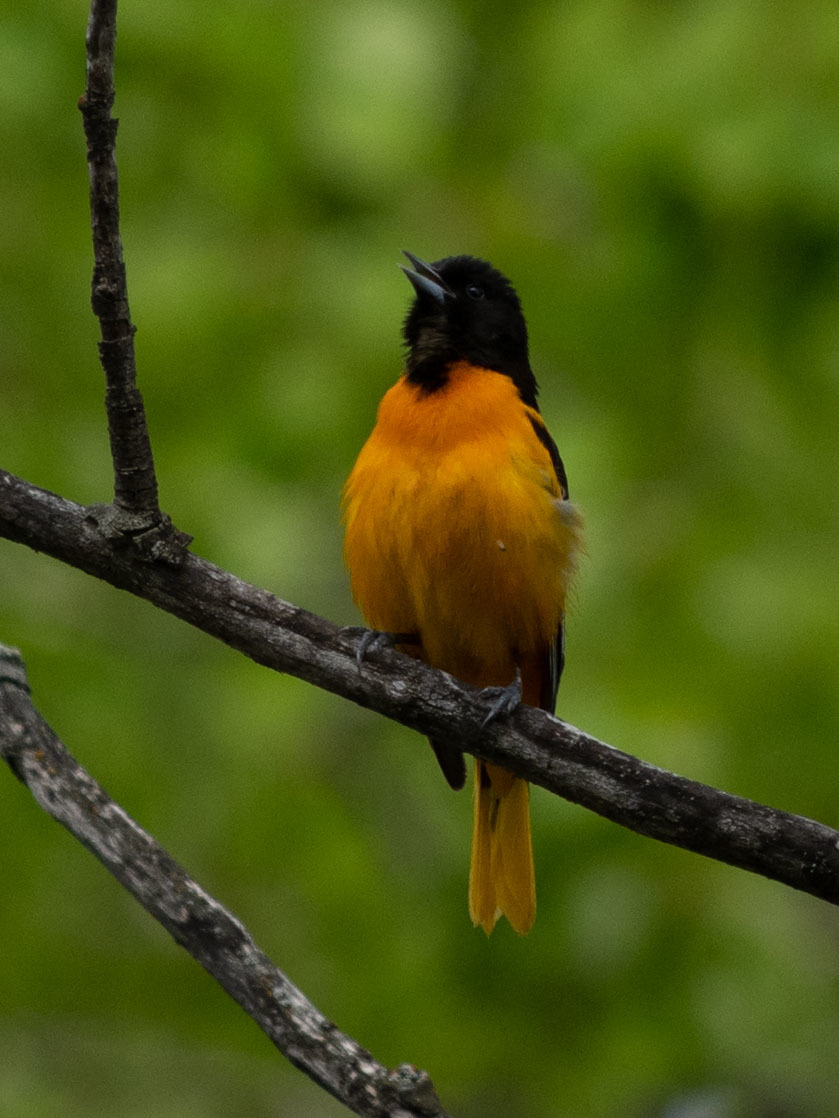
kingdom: Animalia
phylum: Chordata
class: Aves
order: Passeriformes
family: Icteridae
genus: Icterus
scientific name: Icterus galbula
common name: Baltimore oriole
